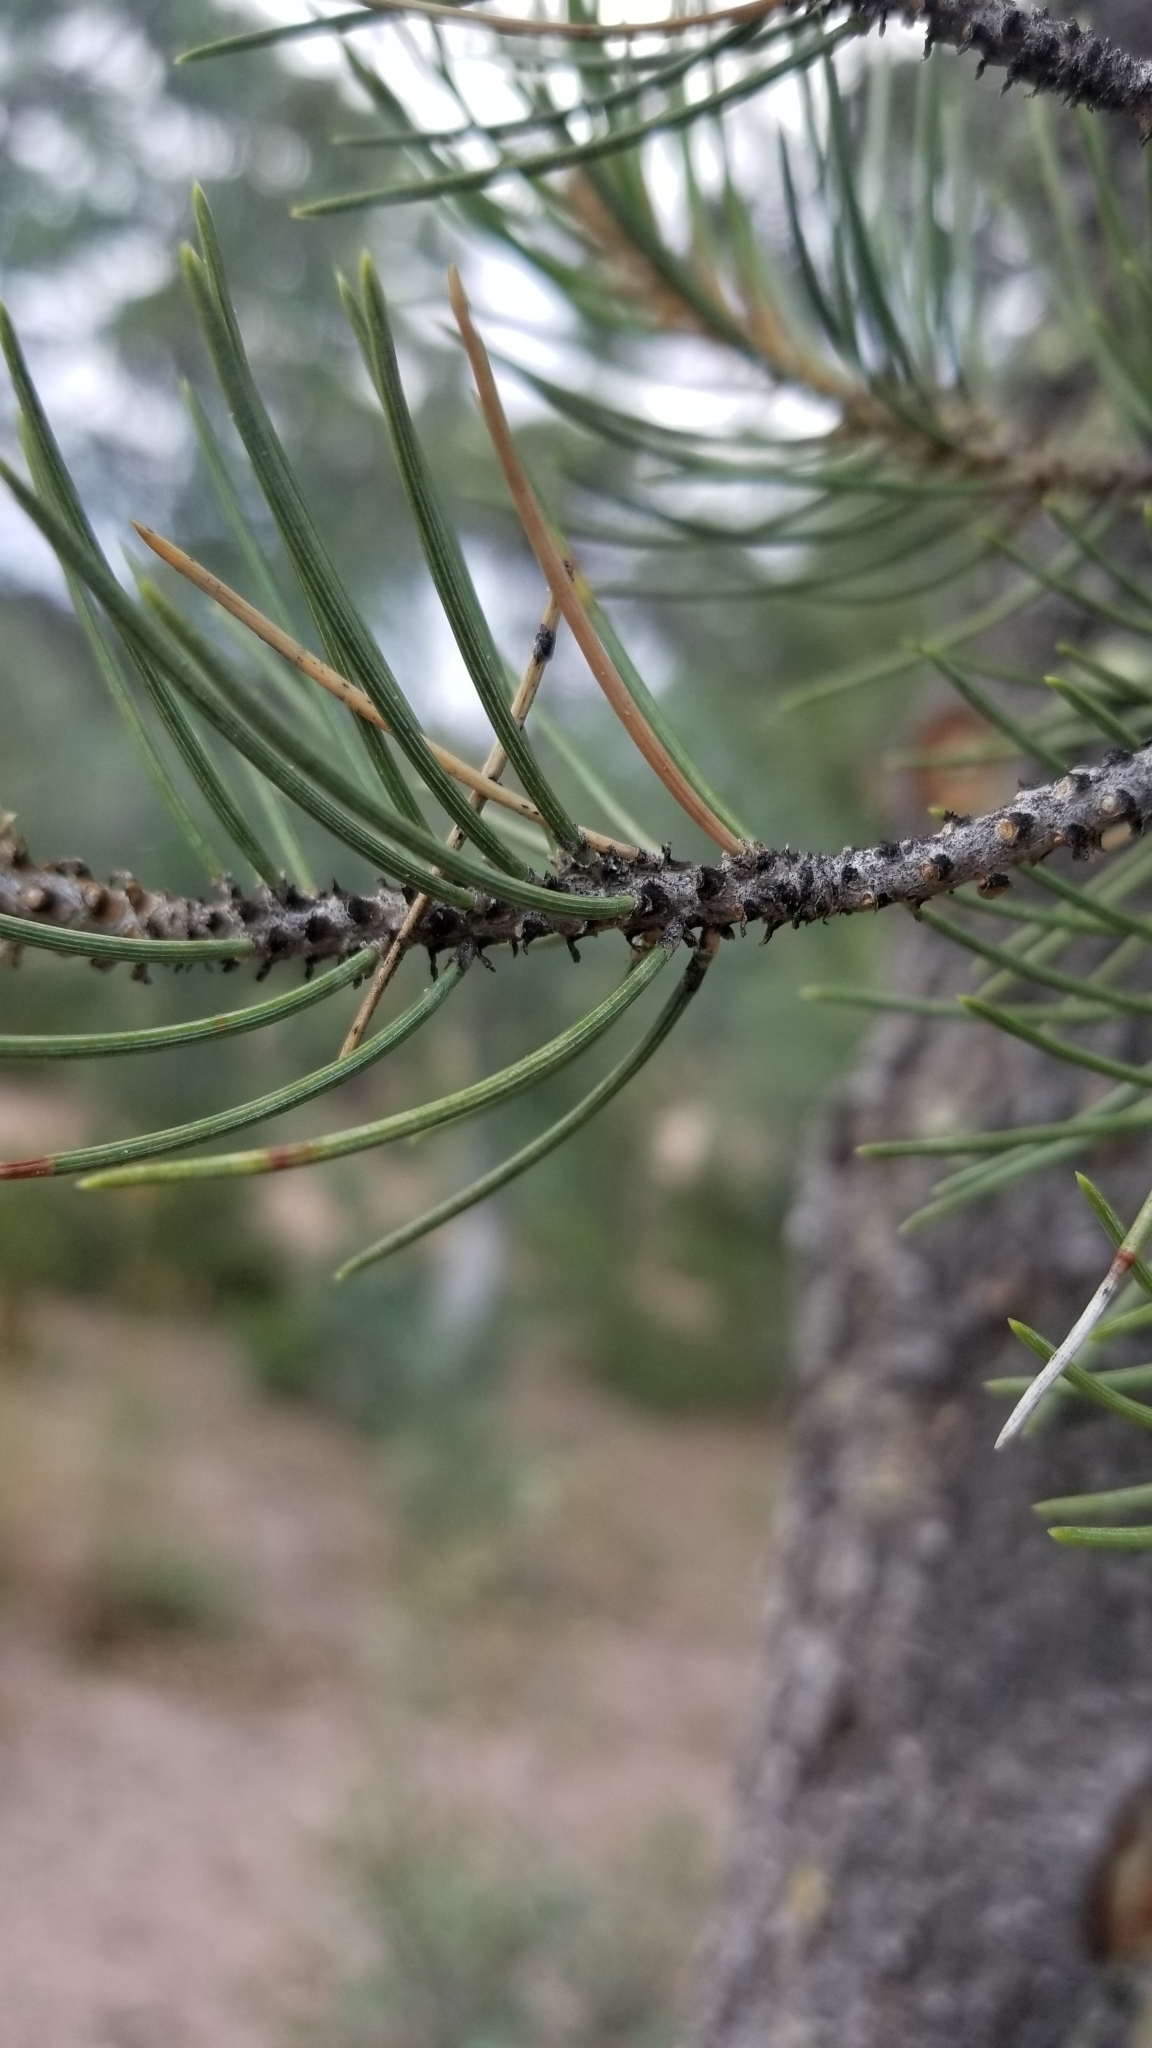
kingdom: Plantae
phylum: Tracheophyta
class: Pinopsida
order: Pinales
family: Pinaceae
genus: Pinus
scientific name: Pinus monophylla
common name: One-leaved nut pine
